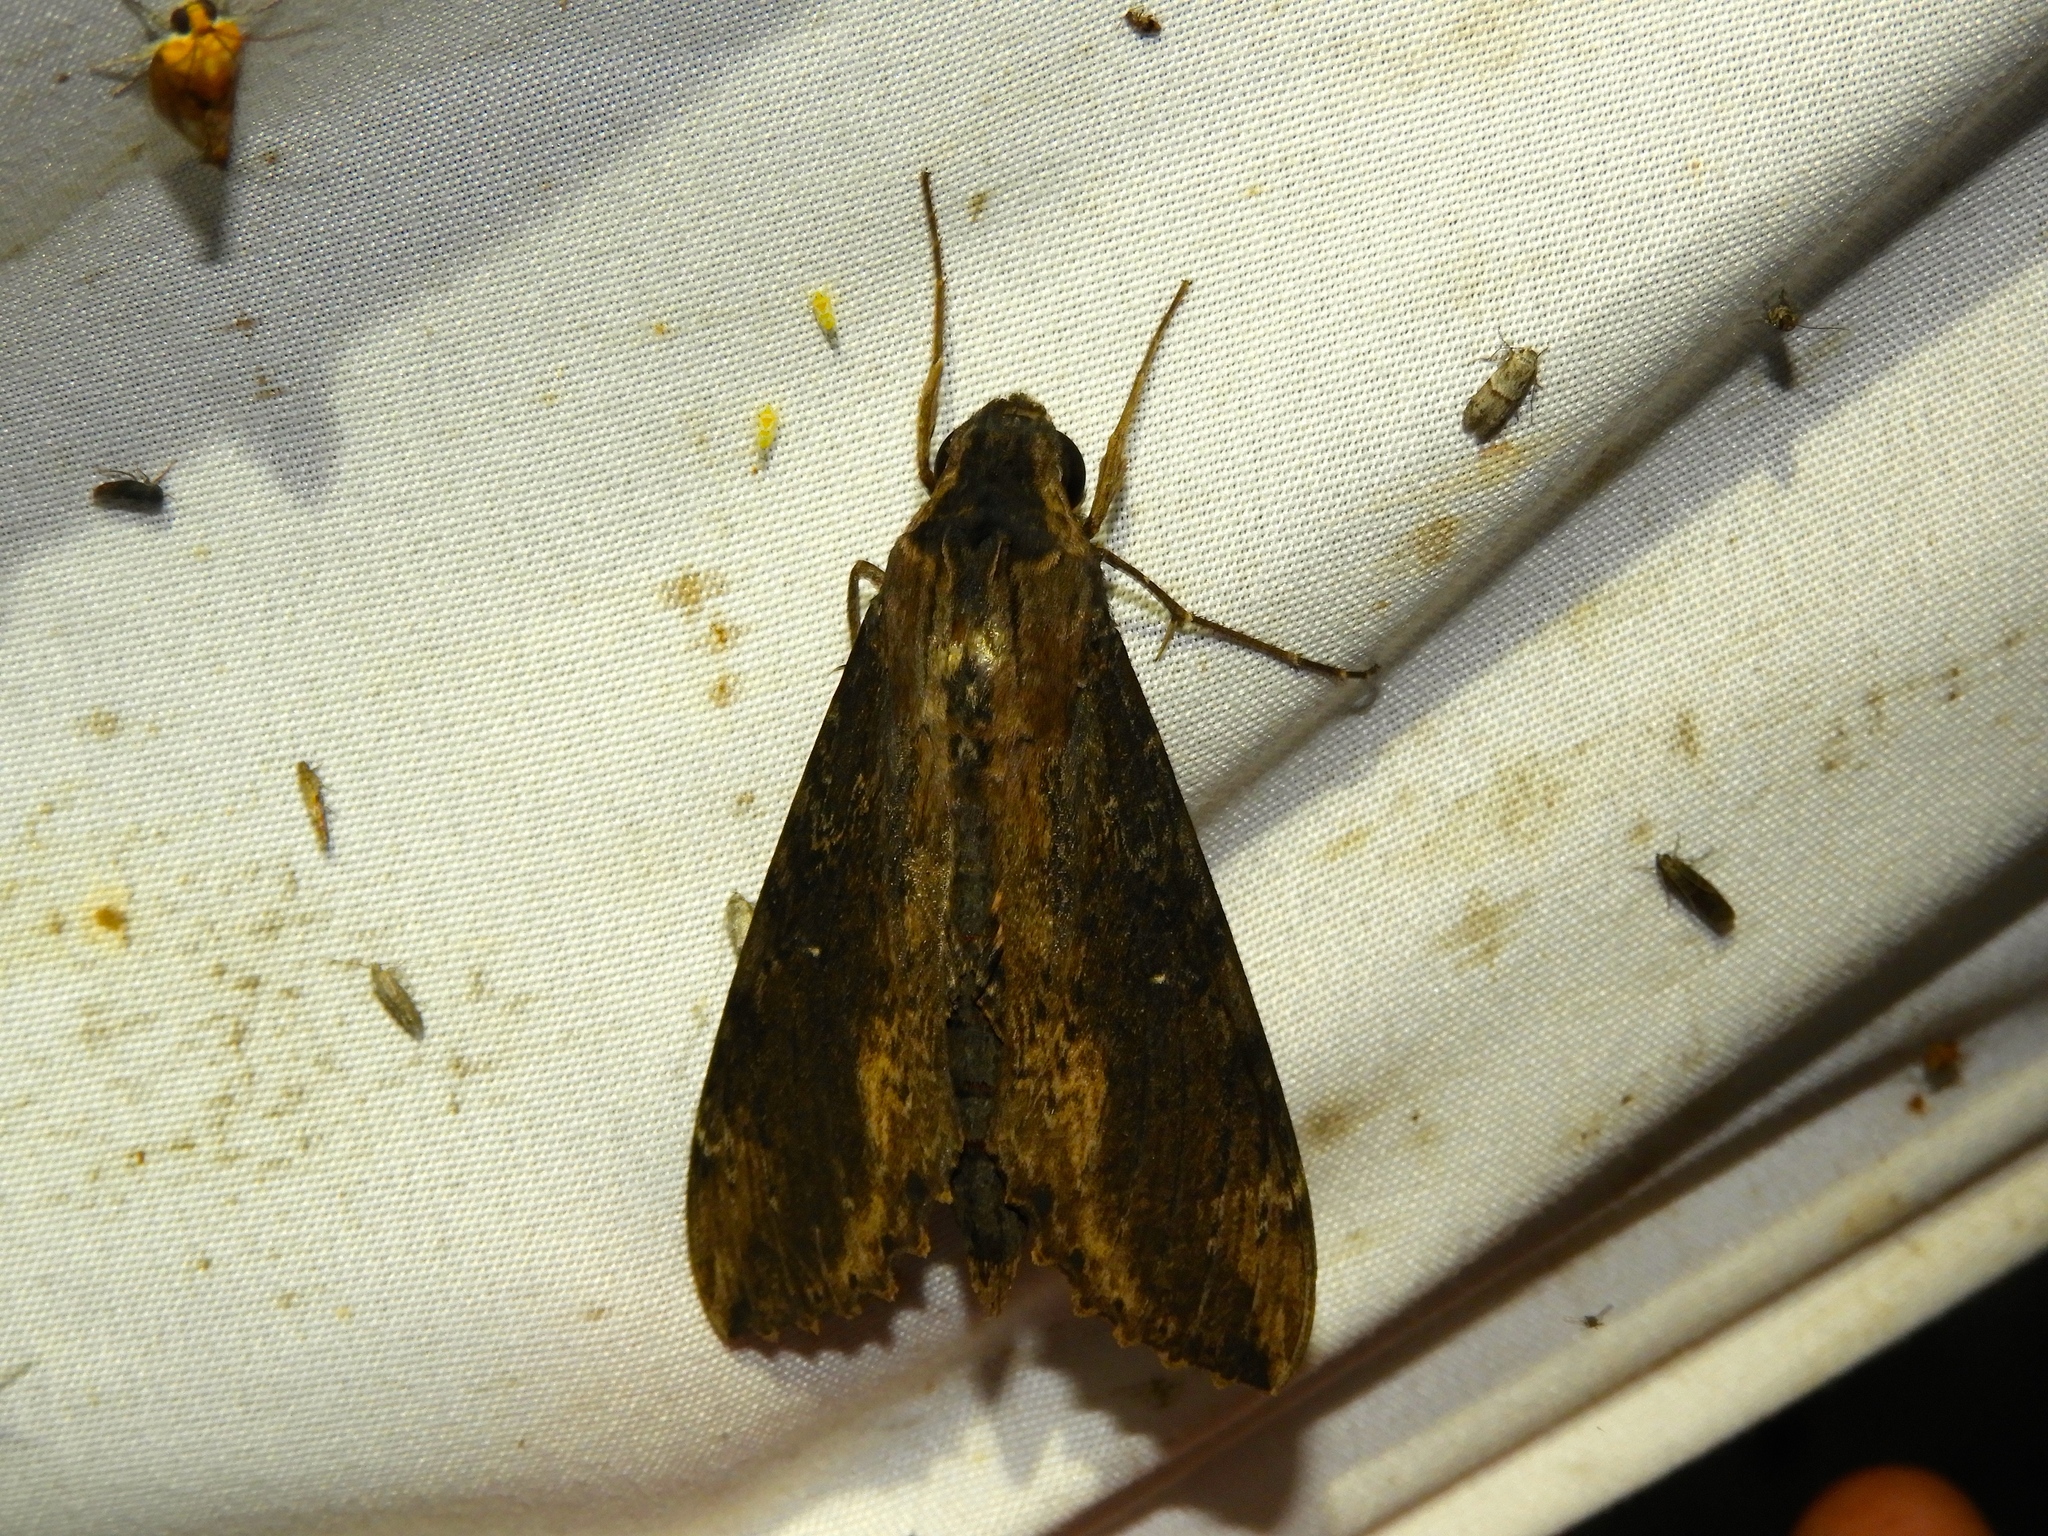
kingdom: Animalia
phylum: Arthropoda
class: Insecta
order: Lepidoptera
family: Sphingidae
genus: Erinnyis
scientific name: Erinnyis crameri
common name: Cramer's sphinx
